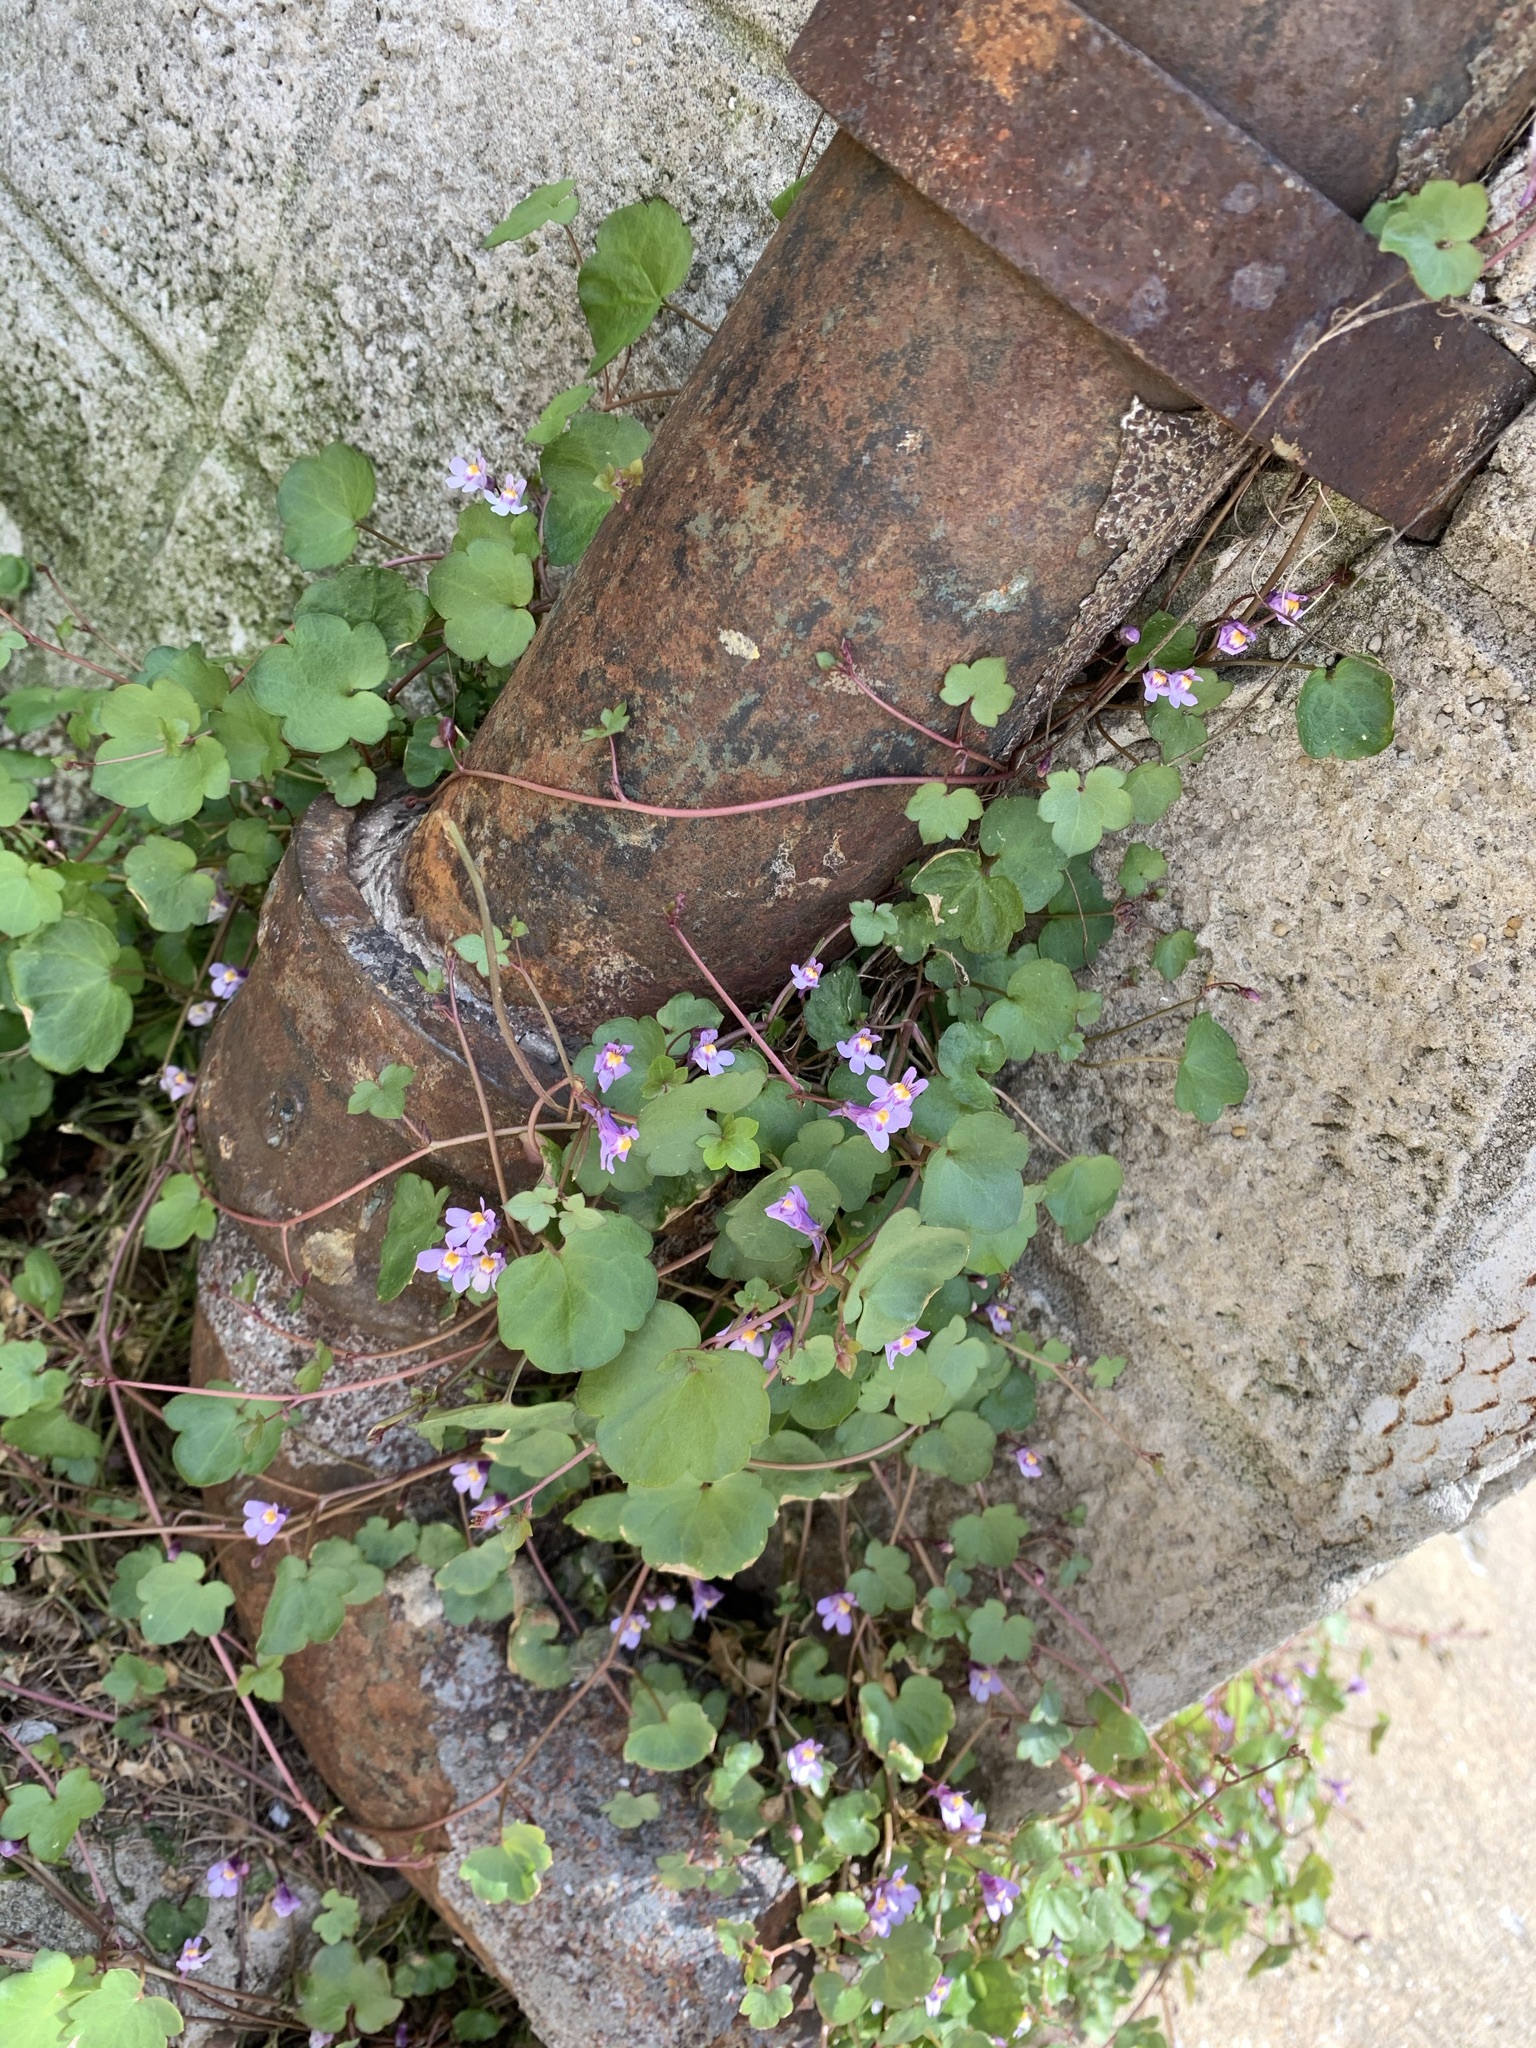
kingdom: Plantae
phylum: Tracheophyta
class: Magnoliopsida
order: Lamiales
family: Plantaginaceae
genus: Cymbalaria
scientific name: Cymbalaria muralis
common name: Ivy-leaved toadflax
